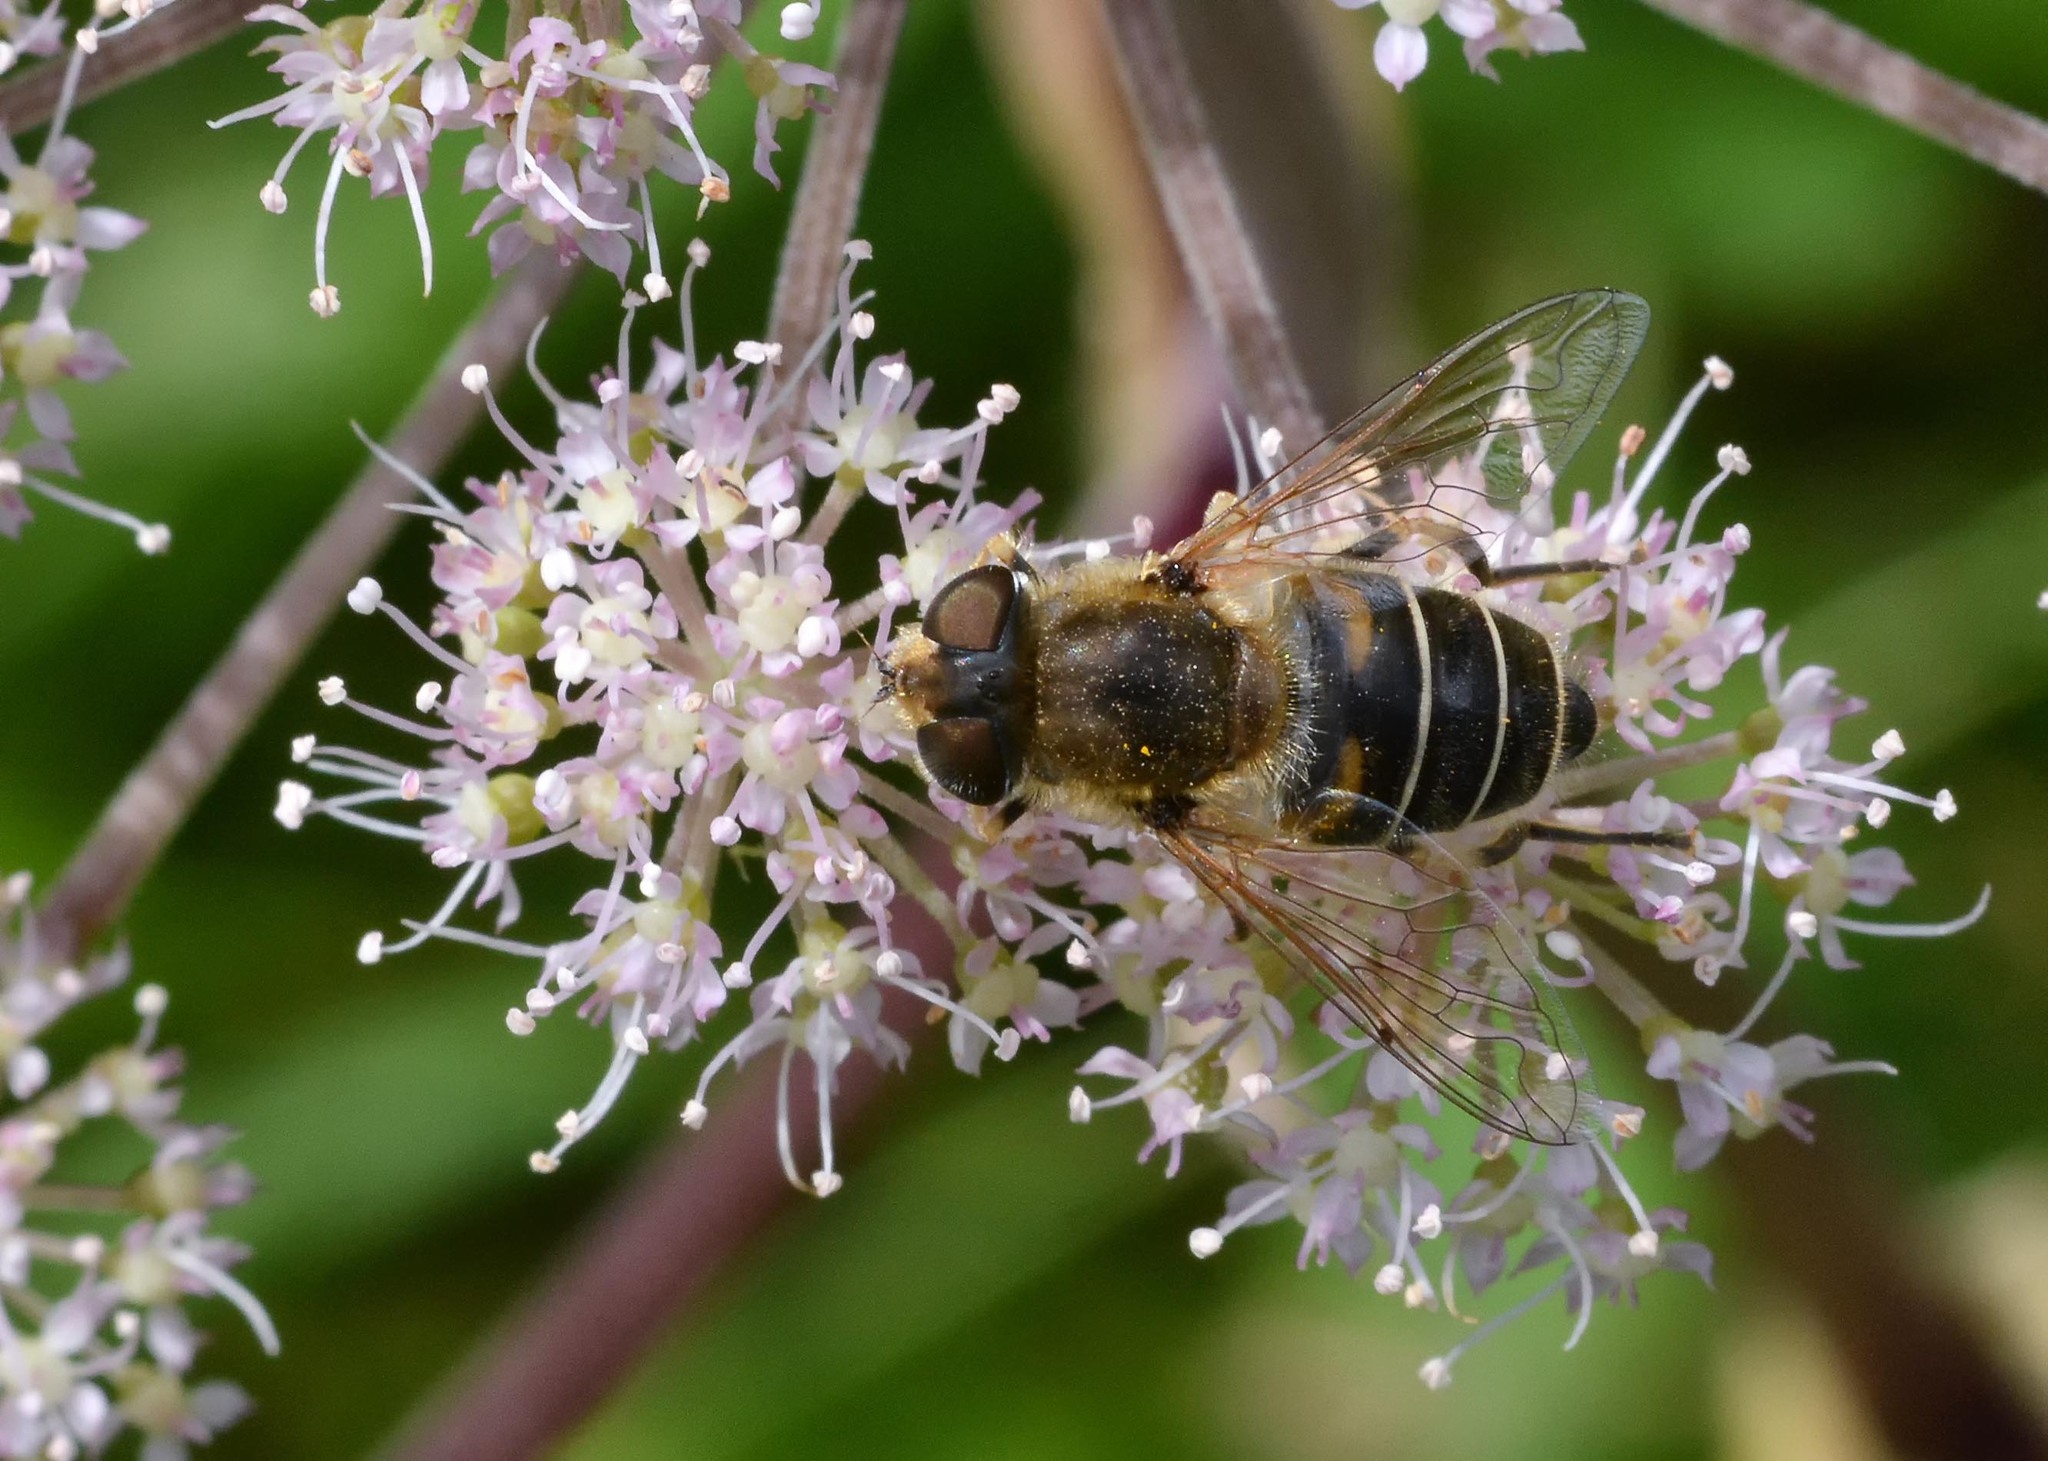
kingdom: Animalia
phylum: Arthropoda
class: Insecta
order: Diptera
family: Syrphidae
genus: Eristalis
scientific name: Eristalis nemorum
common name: Orange-spined drone fly
